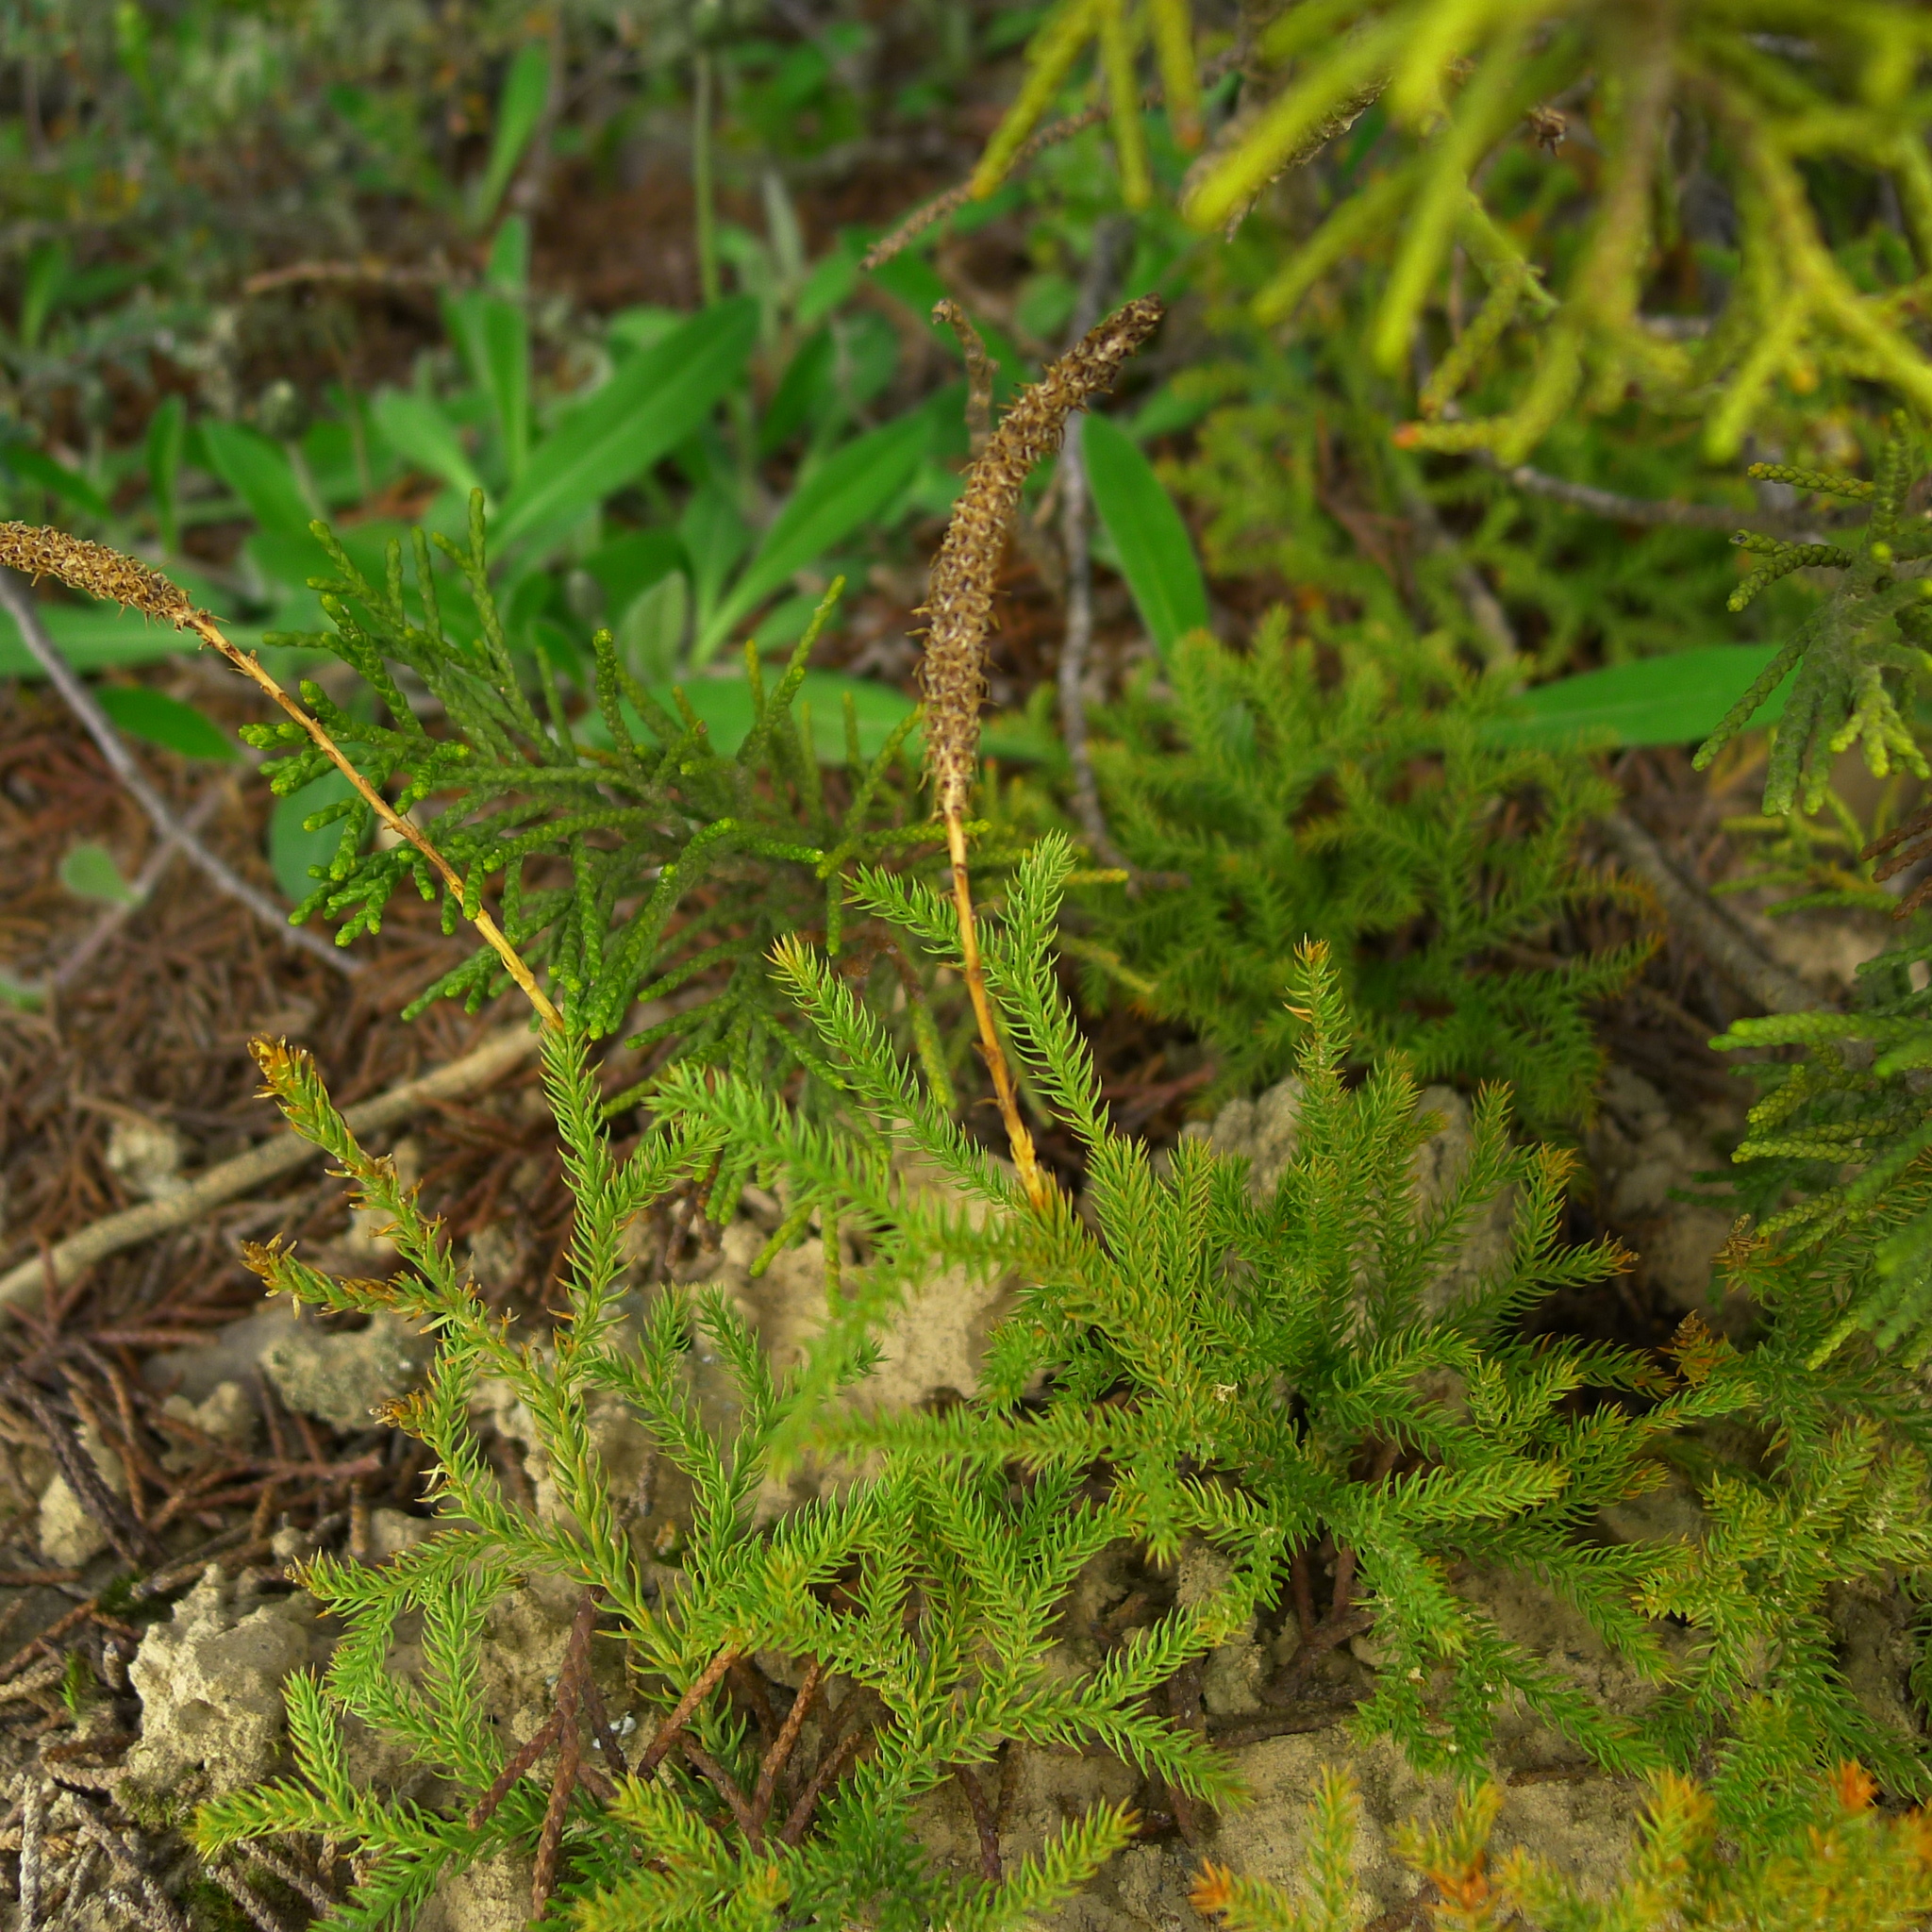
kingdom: Plantae
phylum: Tracheophyta
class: Lycopodiopsida
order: Lycopodiales
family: Lycopodiaceae
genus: Austrolycopodium
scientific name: Austrolycopodium fastigiatum
